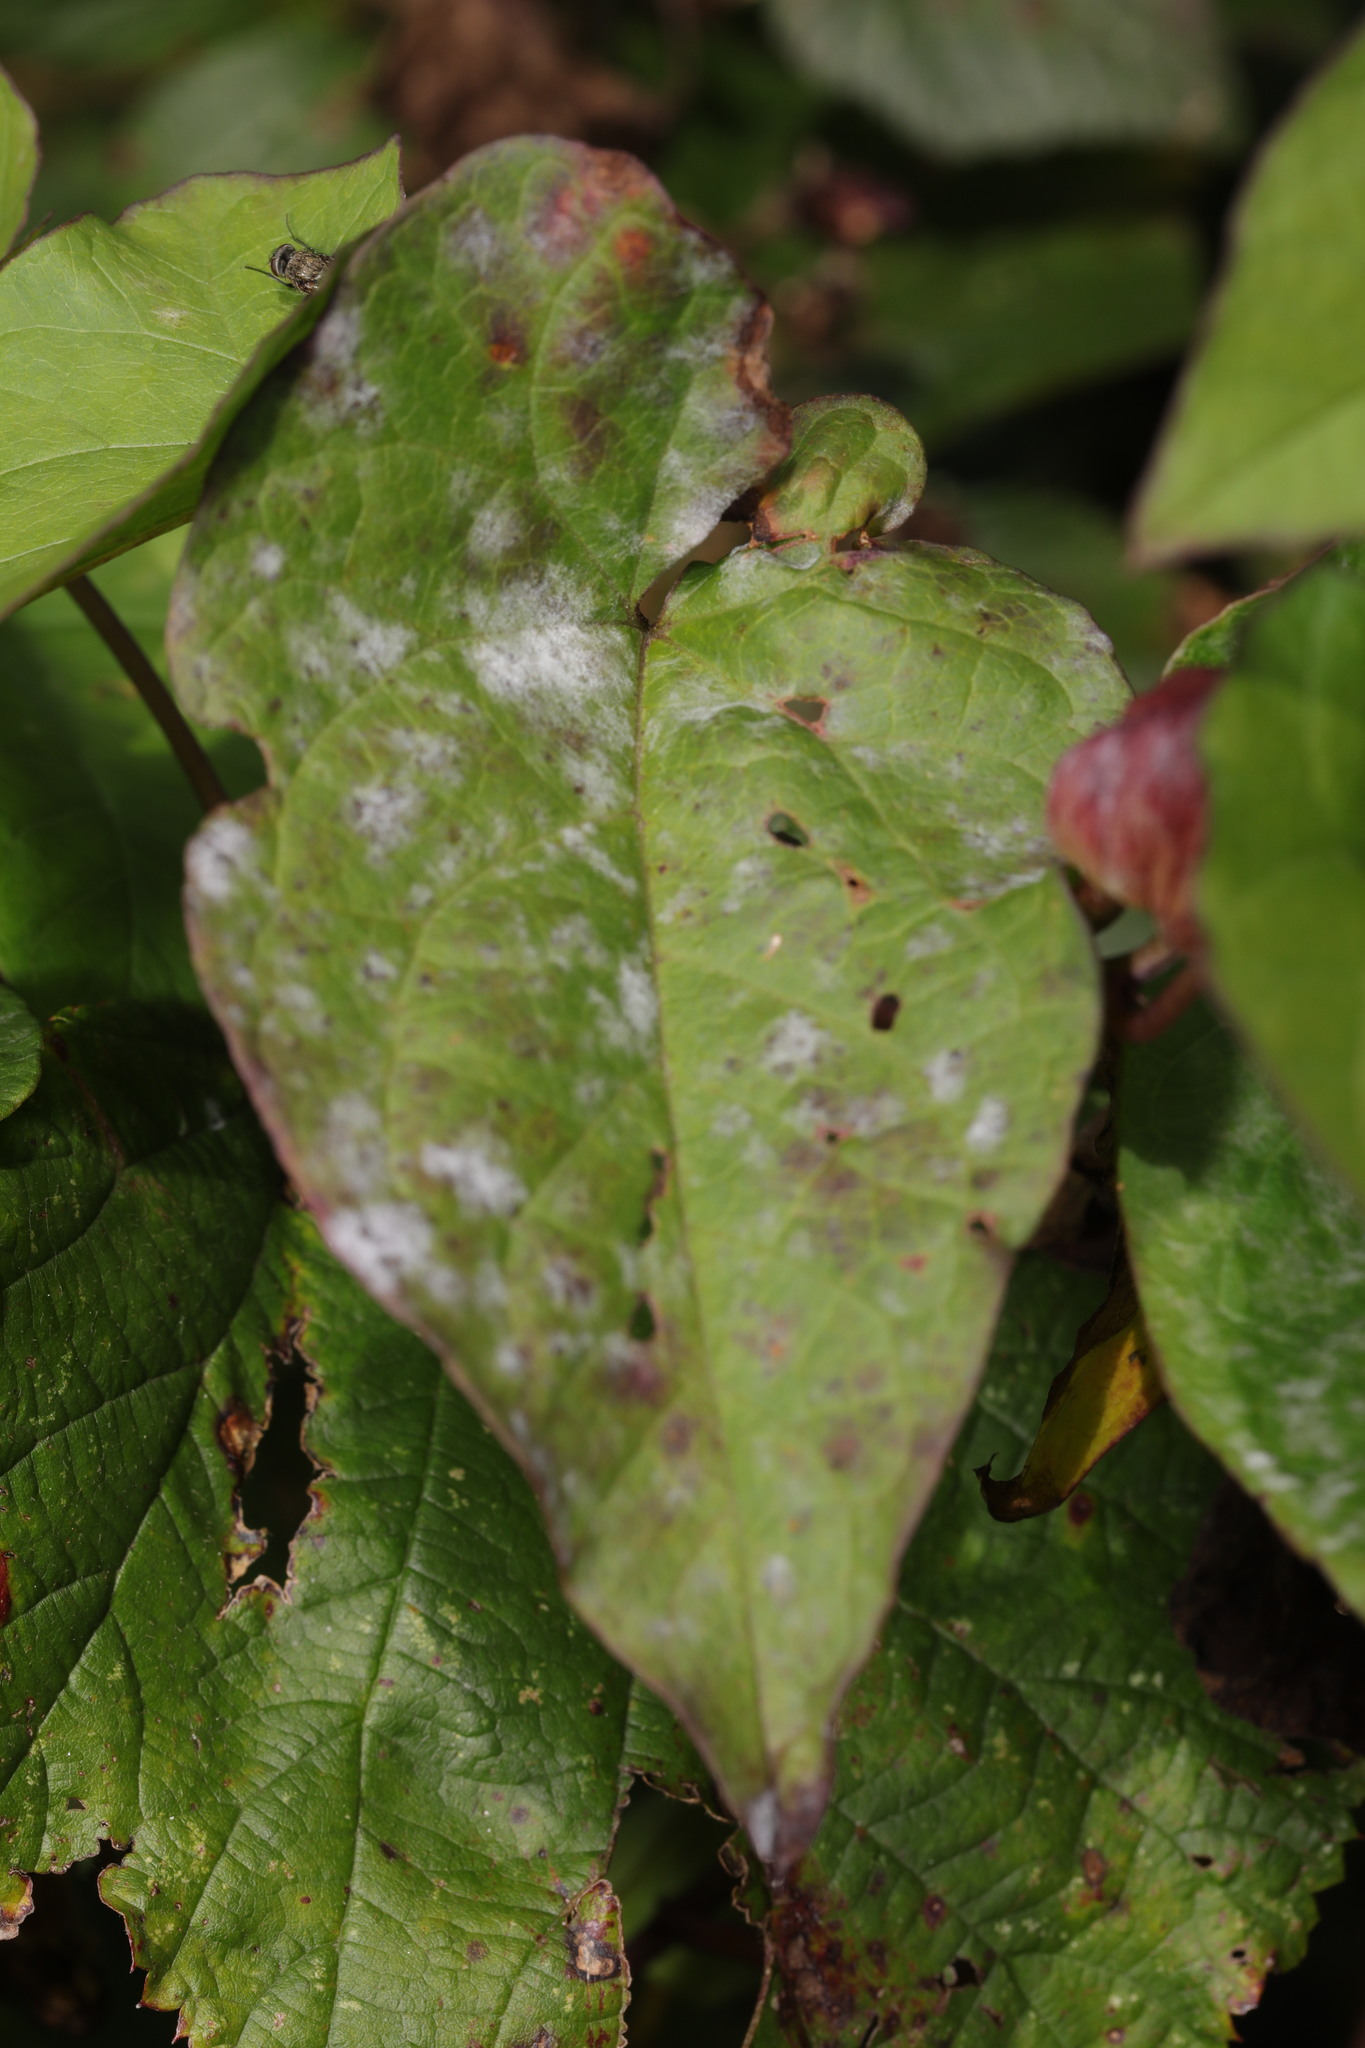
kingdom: Fungi
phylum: Ascomycota
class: Leotiomycetes
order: Helotiales
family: Erysiphaceae
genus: Erysiphe
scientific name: Erysiphe convolvuli
